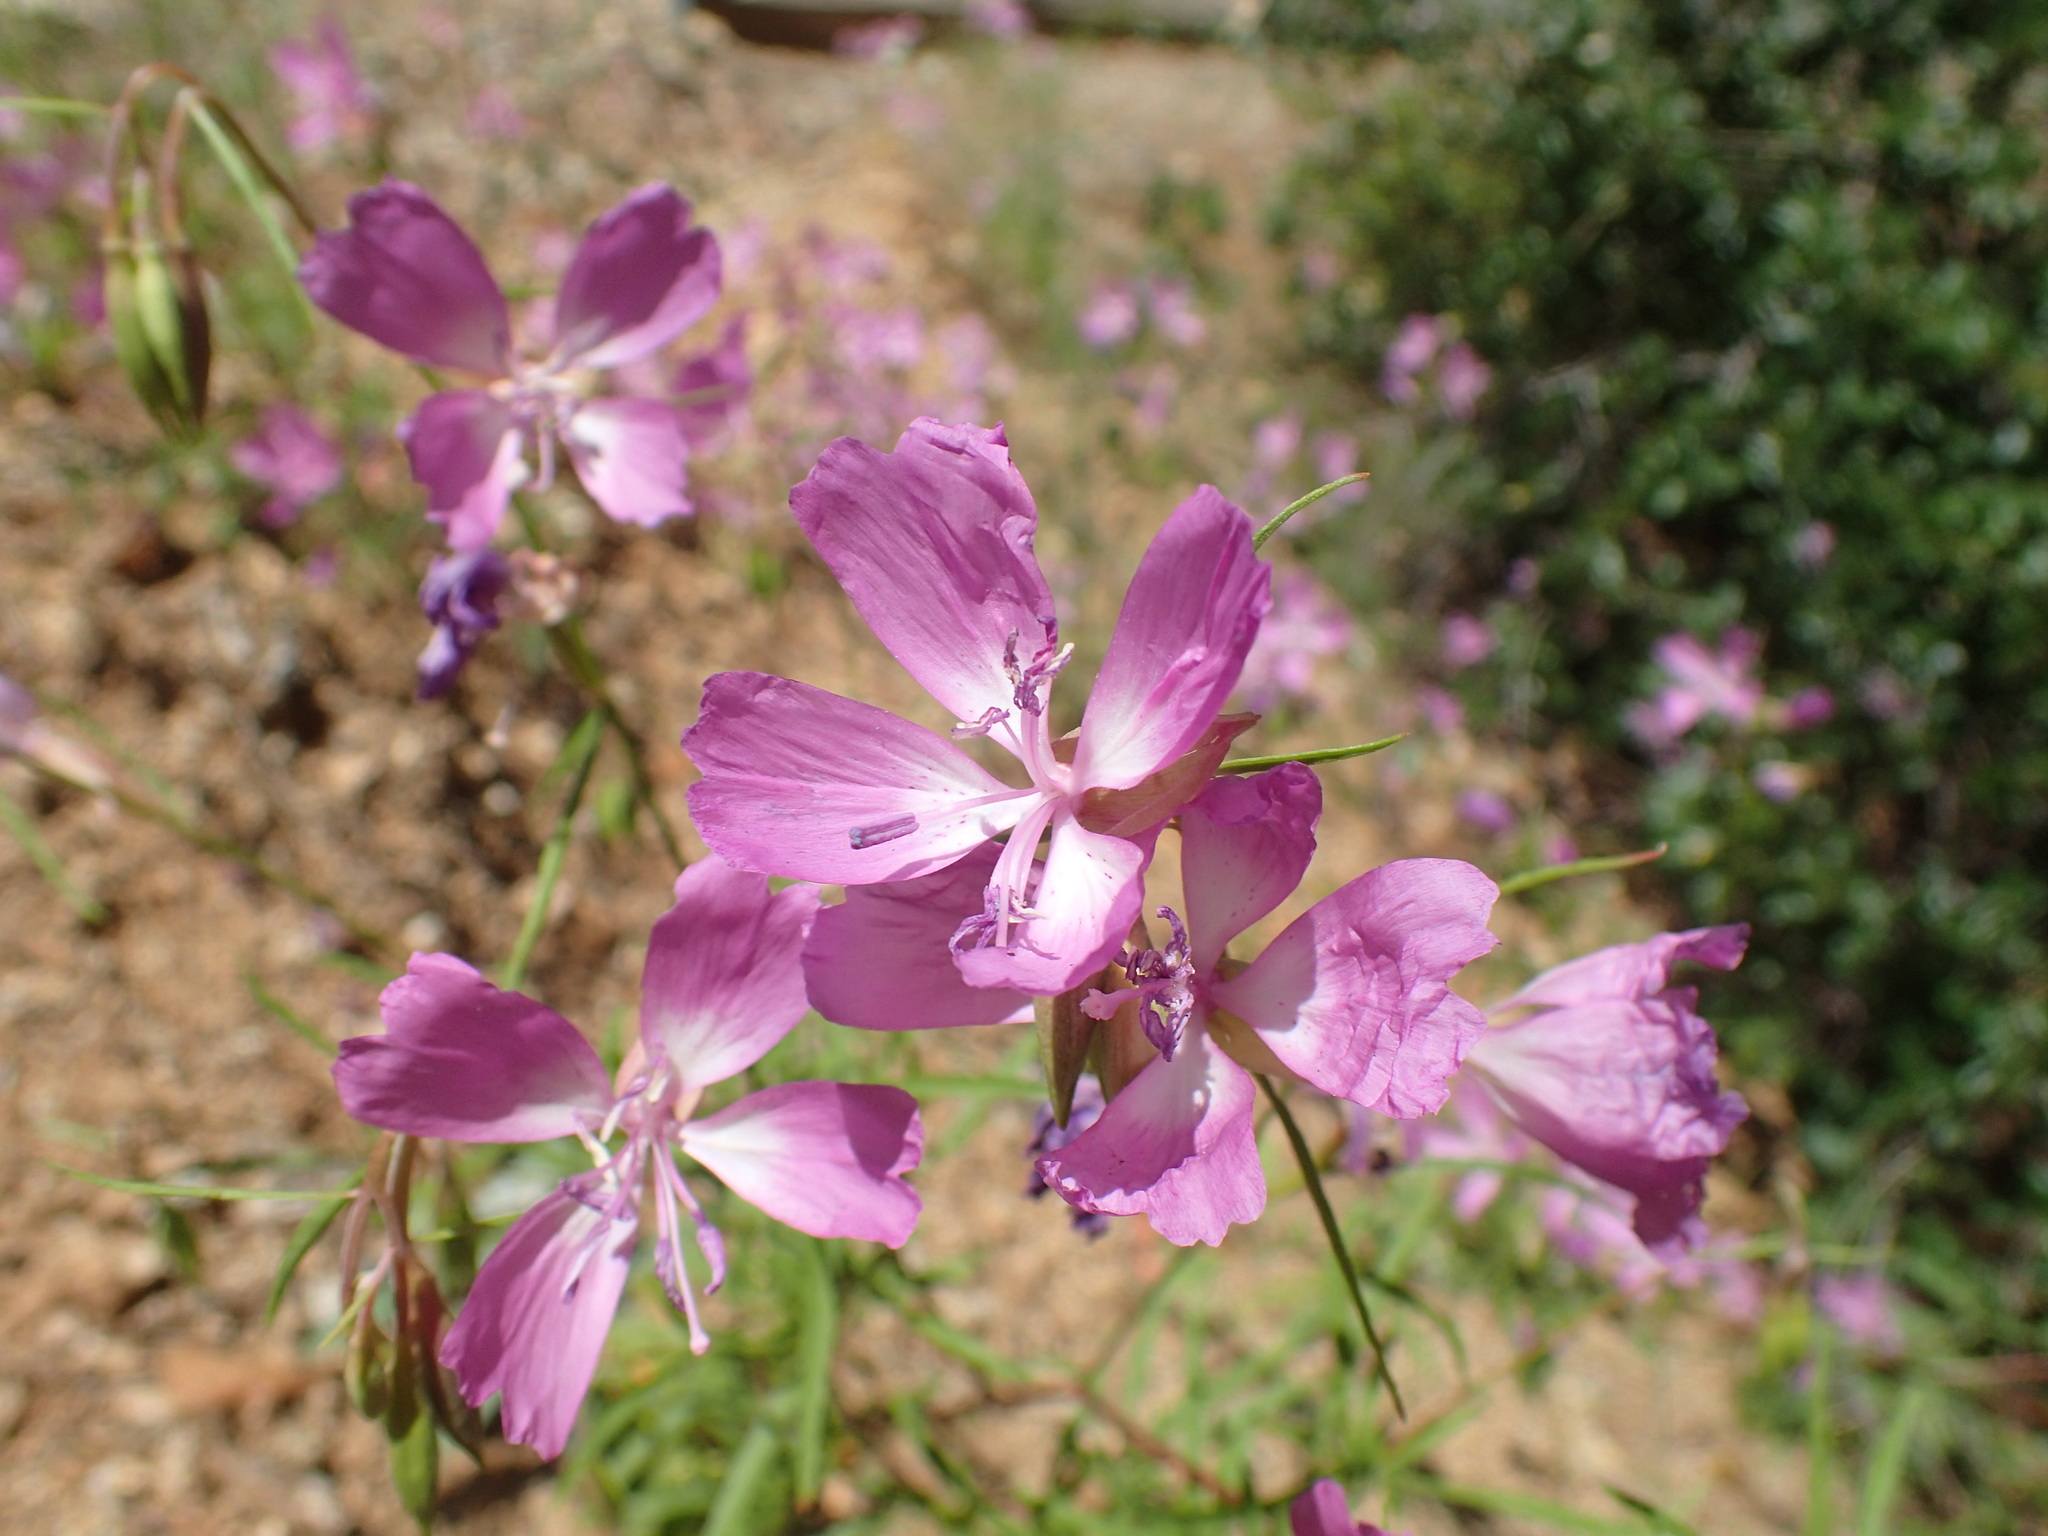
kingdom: Plantae
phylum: Tracheophyta
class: Magnoliopsida
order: Myrtales
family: Onagraceae
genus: Clarkia
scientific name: Clarkia biloba
